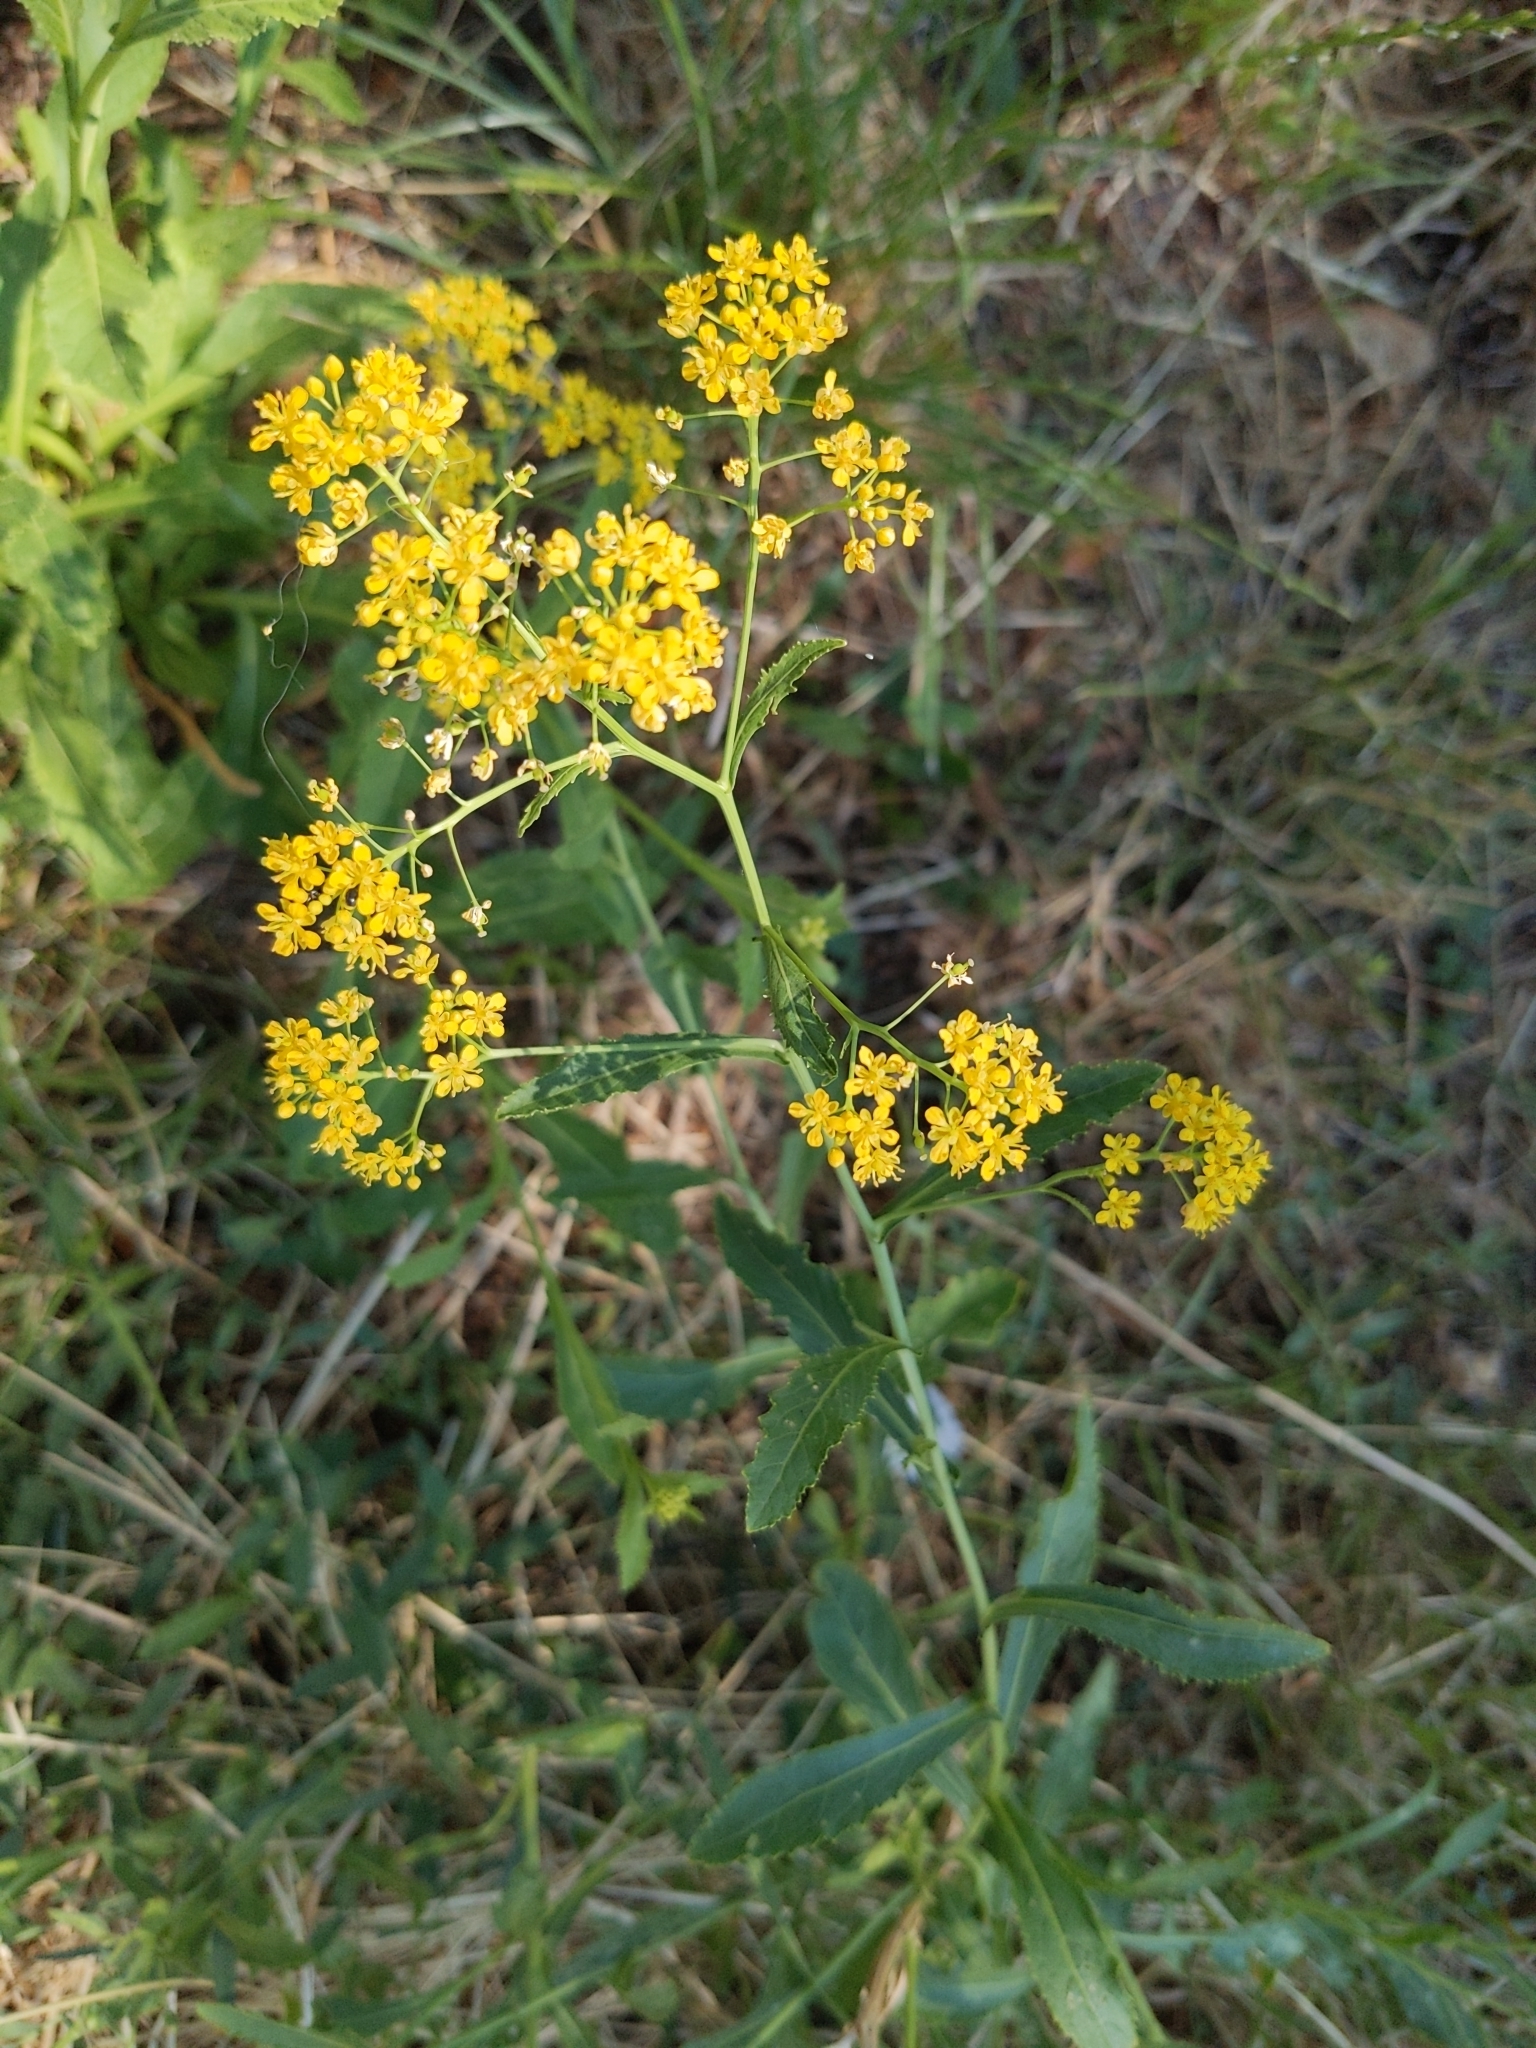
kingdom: Plantae
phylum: Tracheophyta
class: Magnoliopsida
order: Brassicales
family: Brassicaceae
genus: Rorippa
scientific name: Rorippa austriaca
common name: Austrian yellow-cress
